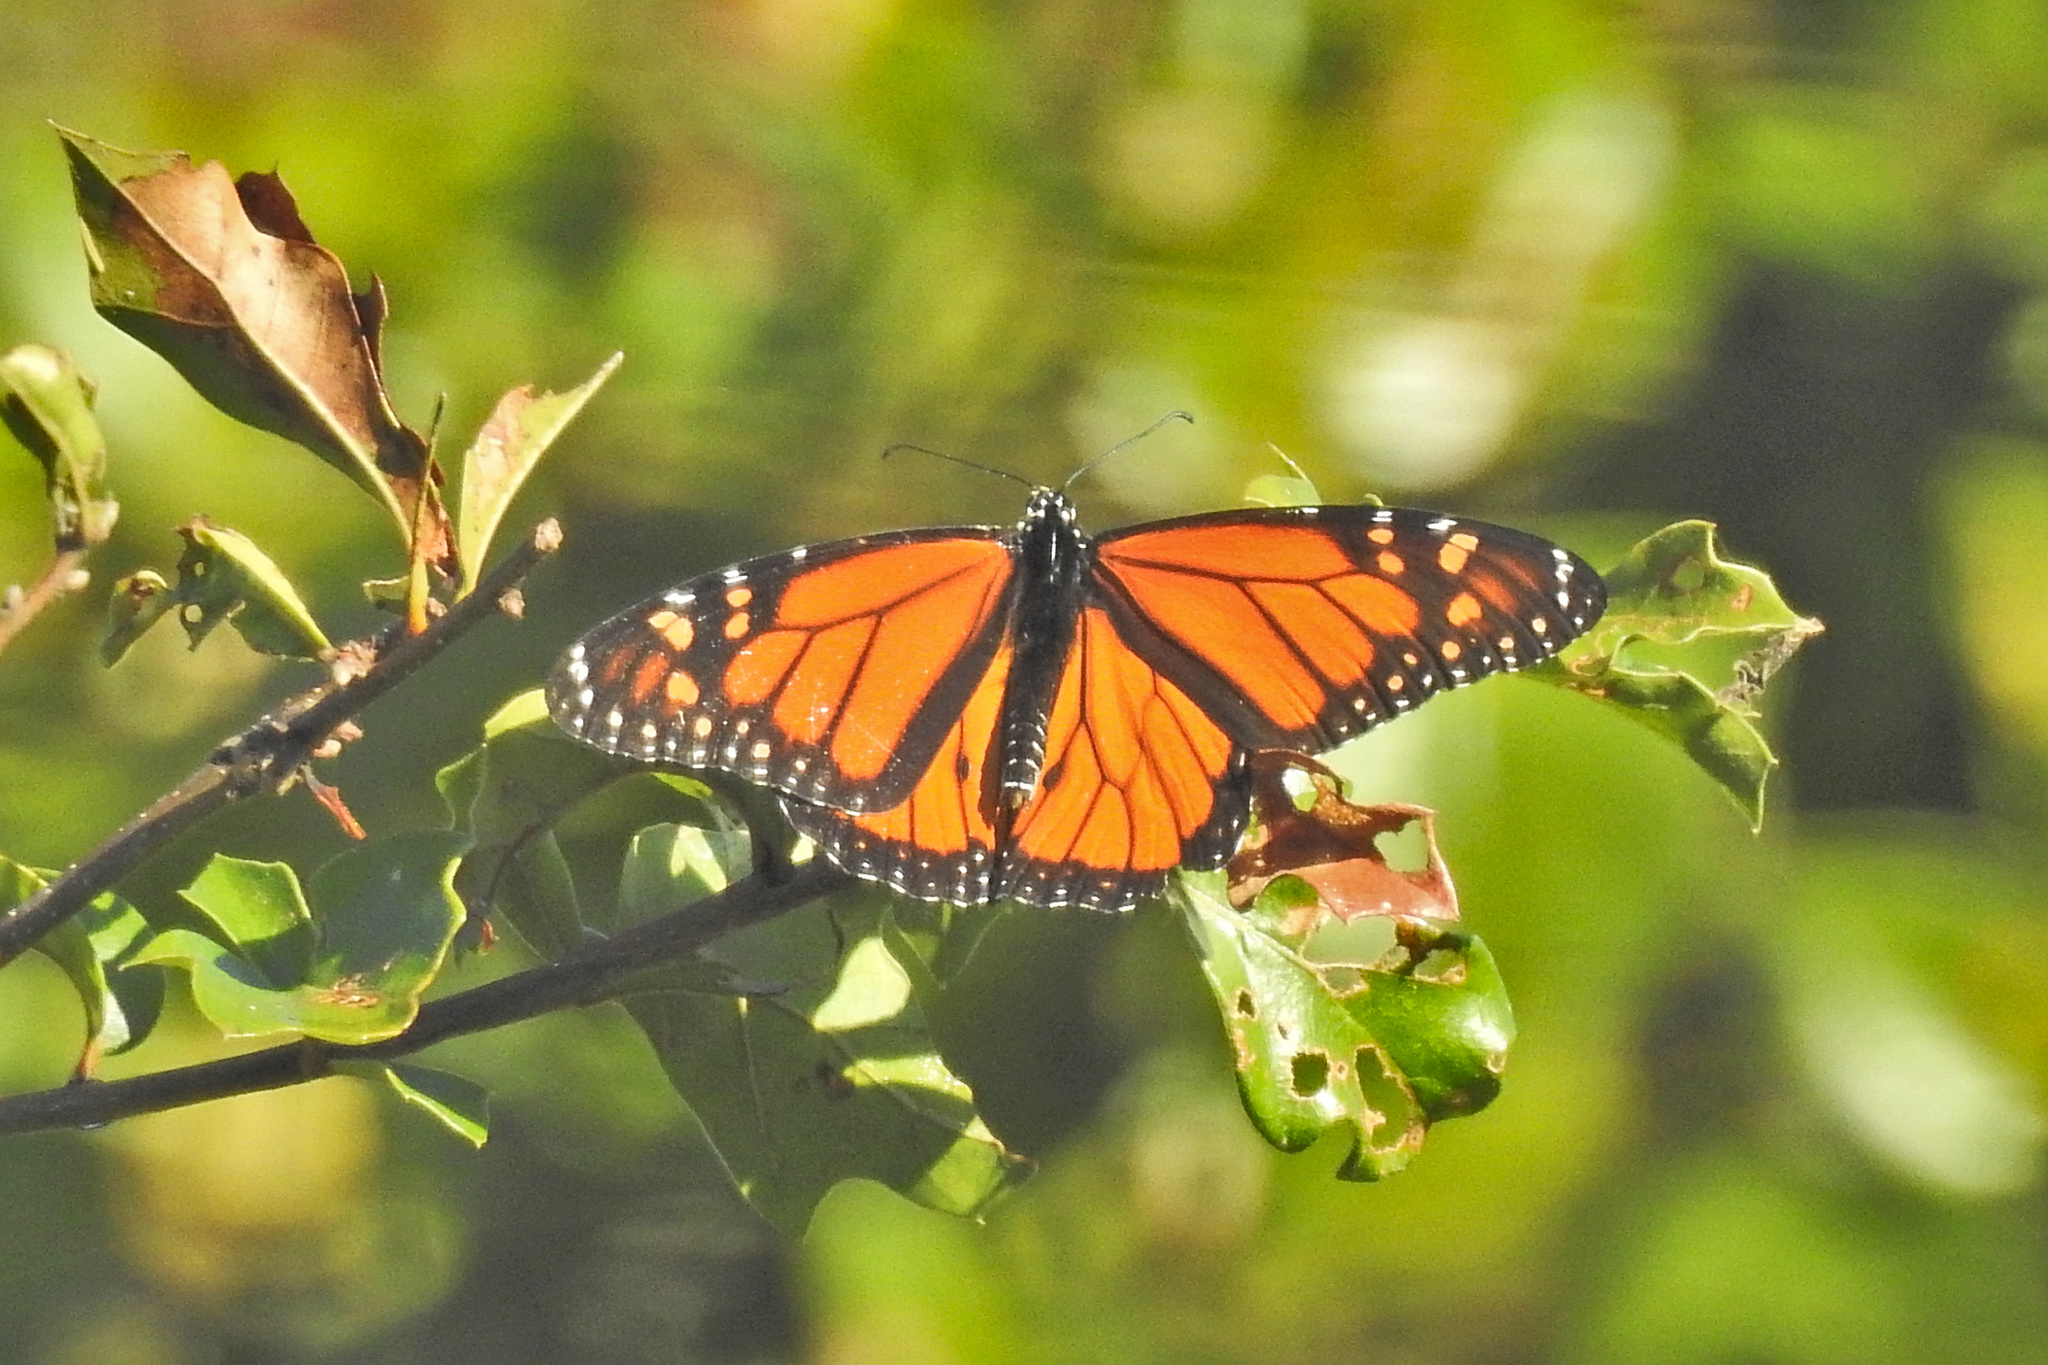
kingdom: Animalia
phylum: Arthropoda
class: Insecta
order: Lepidoptera
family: Nymphalidae
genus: Danaus
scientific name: Danaus plexippus
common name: Monarch
